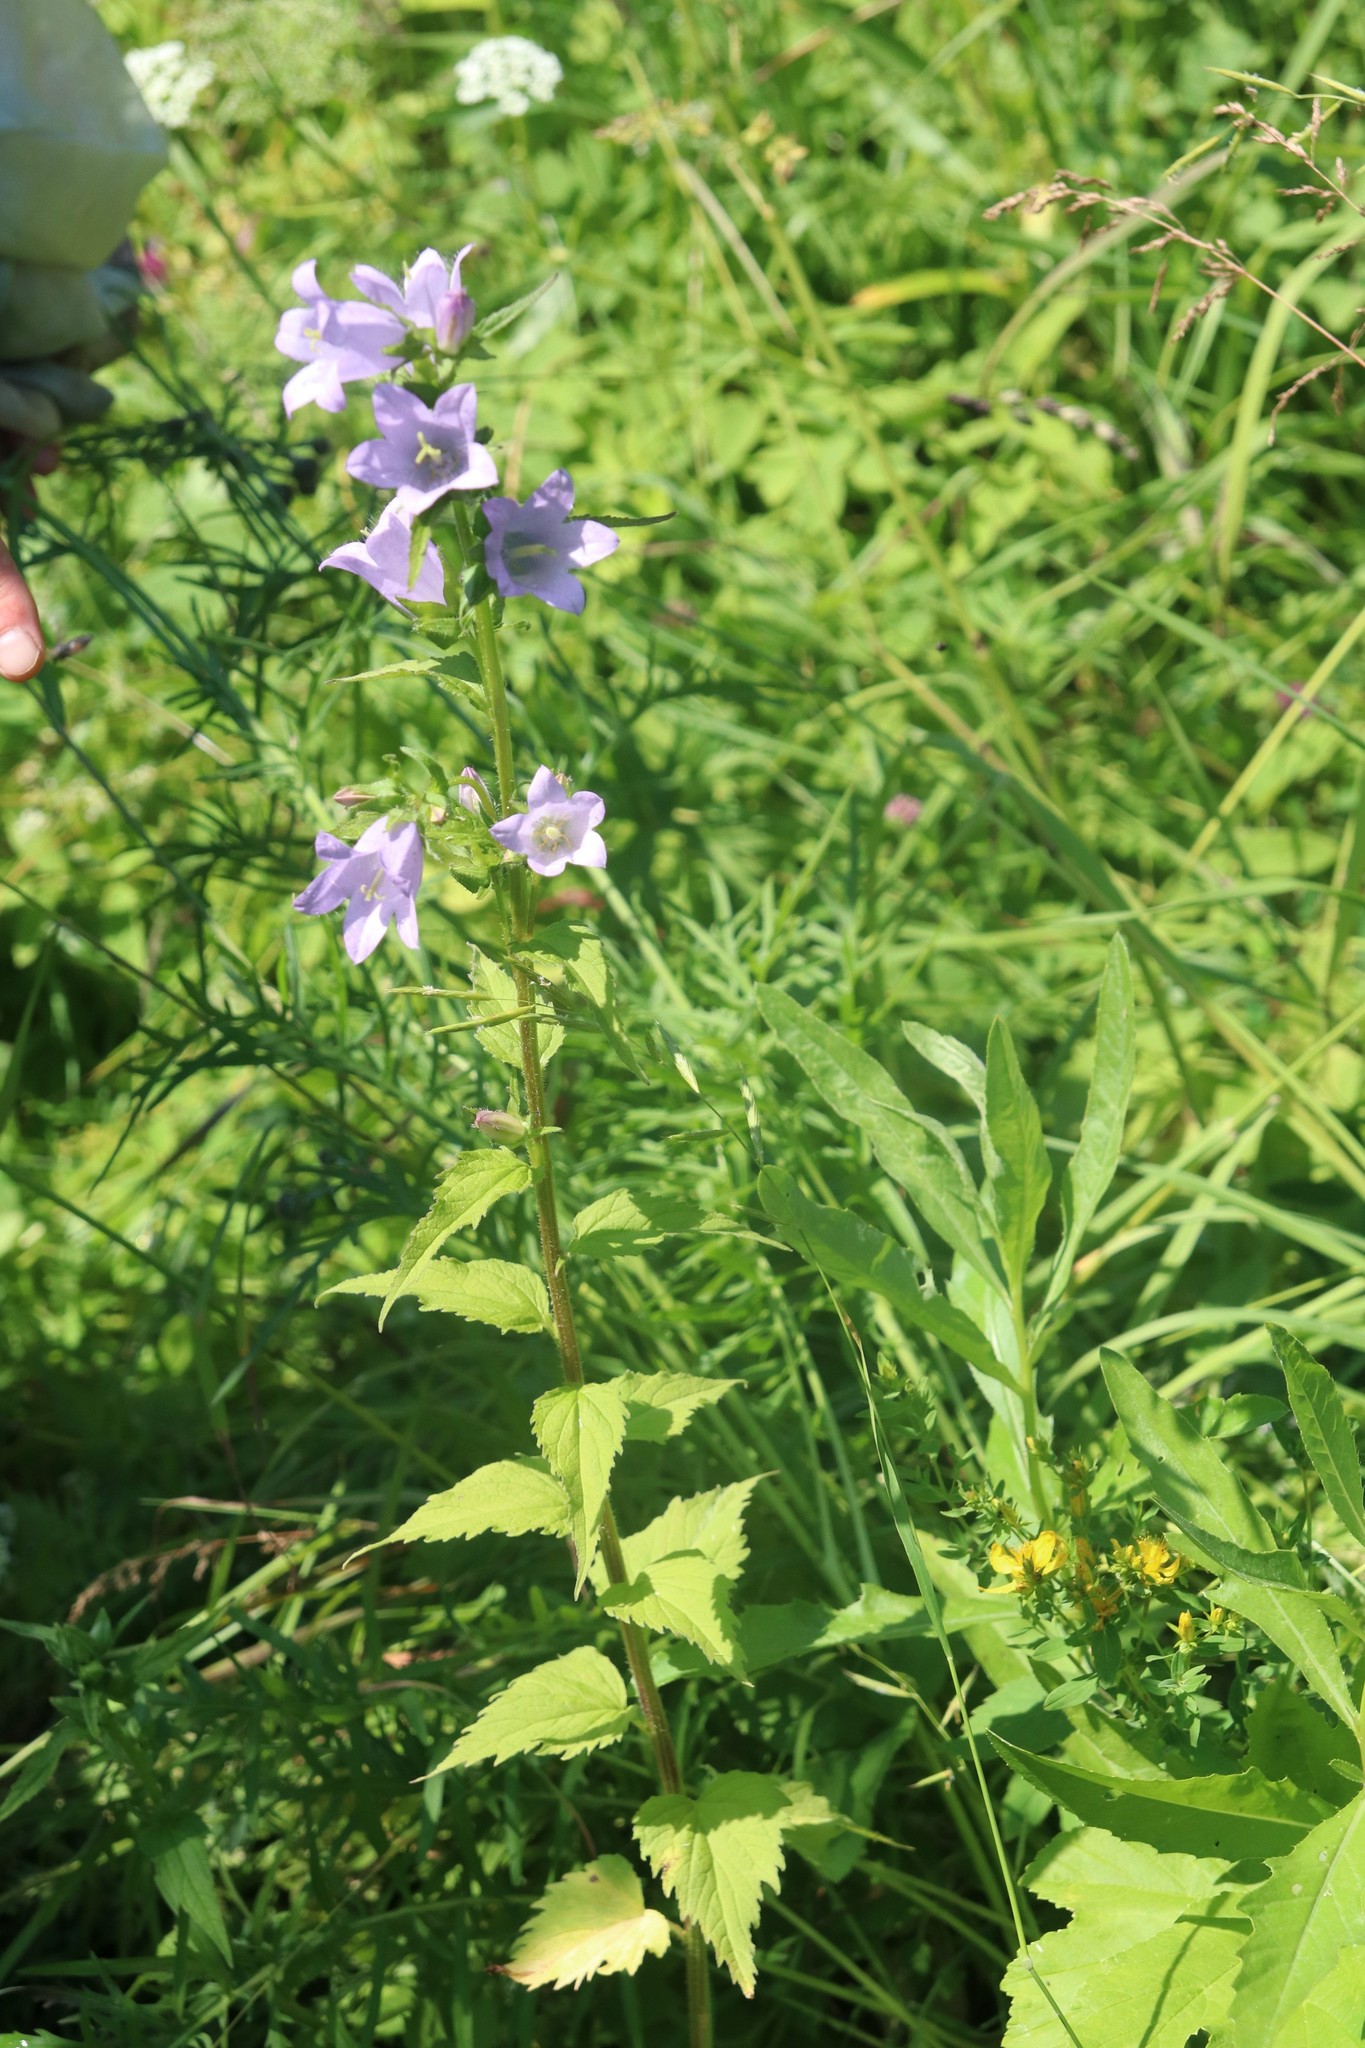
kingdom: Plantae
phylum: Tracheophyta
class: Magnoliopsida
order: Asterales
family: Campanulaceae
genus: Campanula
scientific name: Campanula trachelium
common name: Nettle-leaved bellflower
